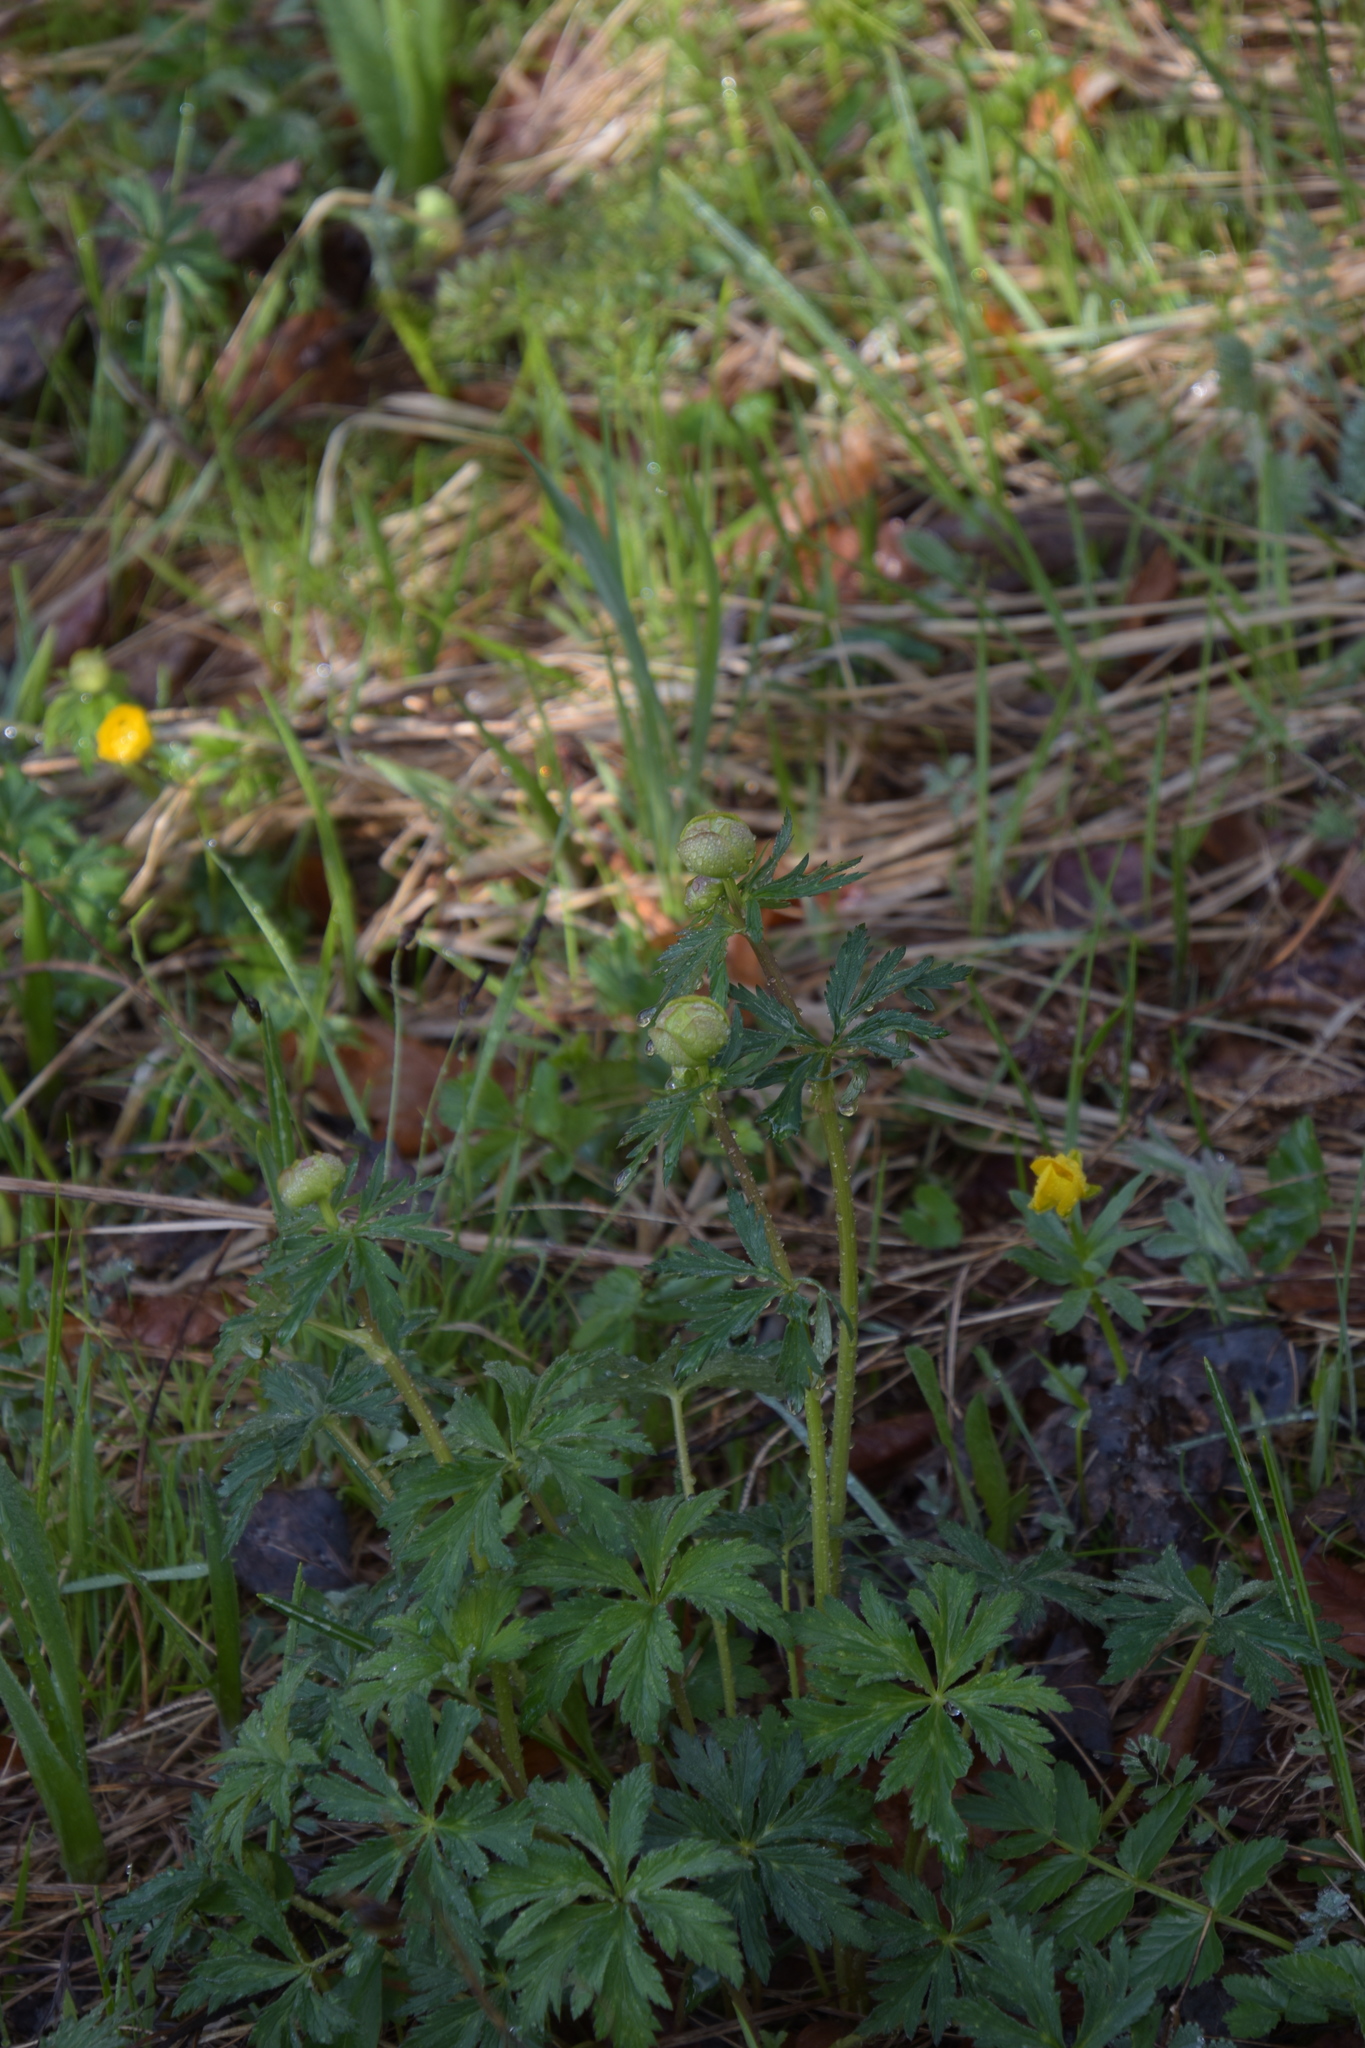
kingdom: Plantae
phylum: Tracheophyta
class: Magnoliopsida
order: Ranunculales
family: Ranunculaceae
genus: Trollius
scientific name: Trollius europaeus
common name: European globeflower
